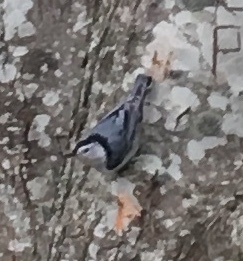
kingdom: Animalia
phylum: Chordata
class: Aves
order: Passeriformes
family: Sittidae
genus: Sitta
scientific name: Sitta carolinensis
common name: White-breasted nuthatch
